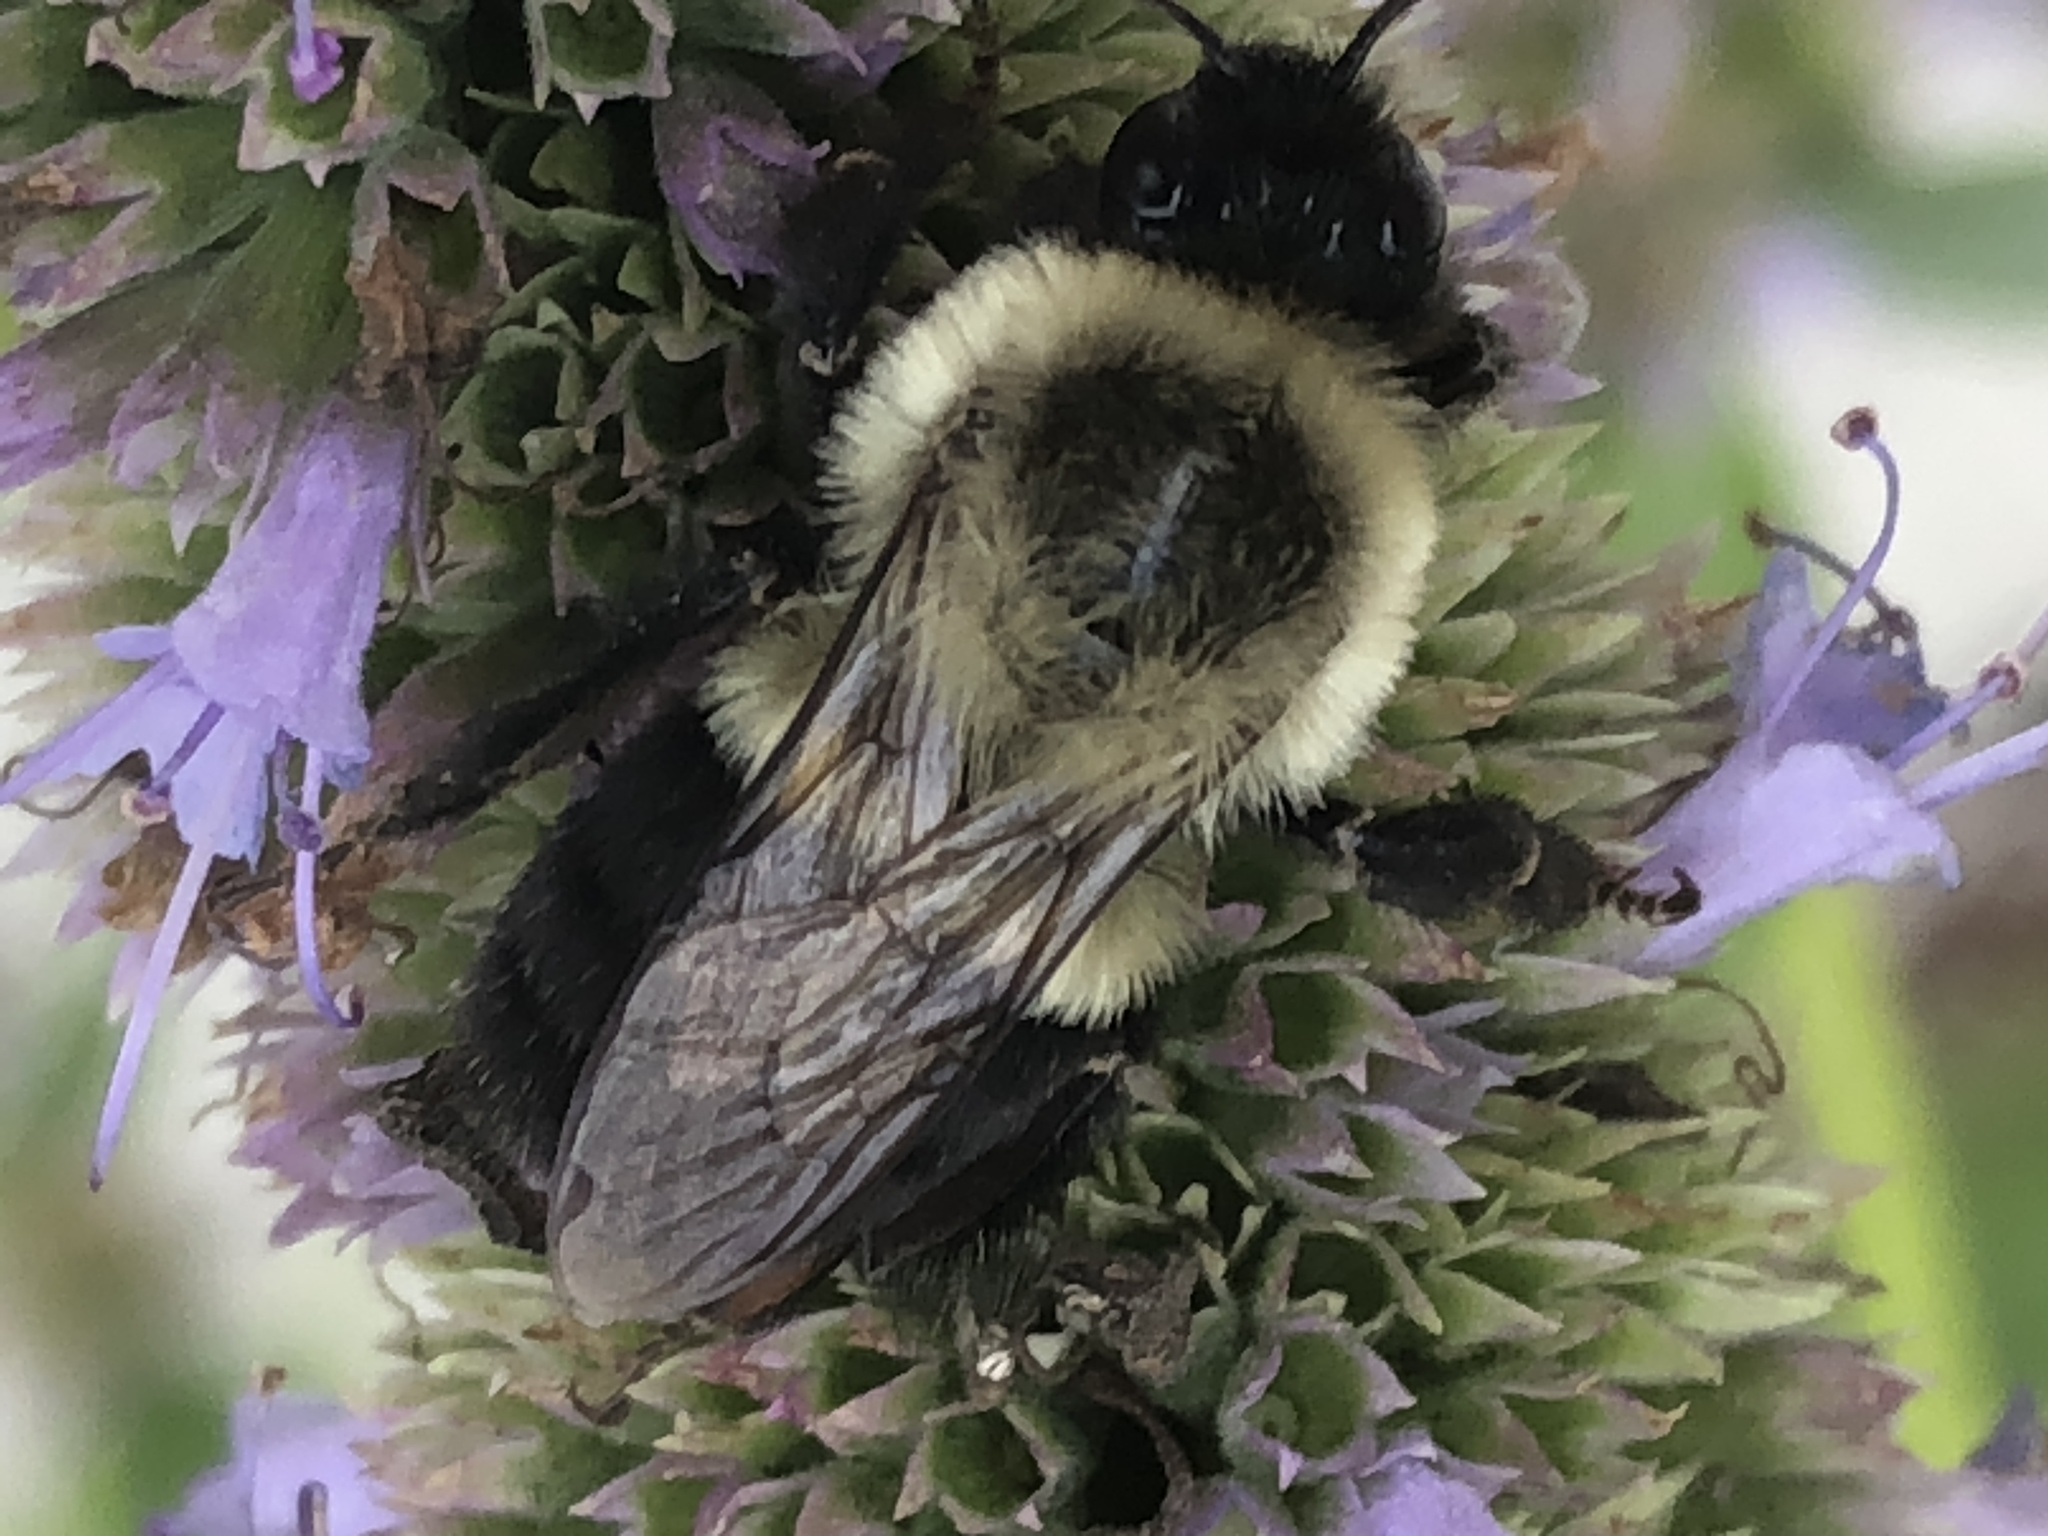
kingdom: Animalia
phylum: Arthropoda
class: Insecta
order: Hymenoptera
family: Apidae
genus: Bombus
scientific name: Bombus impatiens
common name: Common eastern bumble bee
